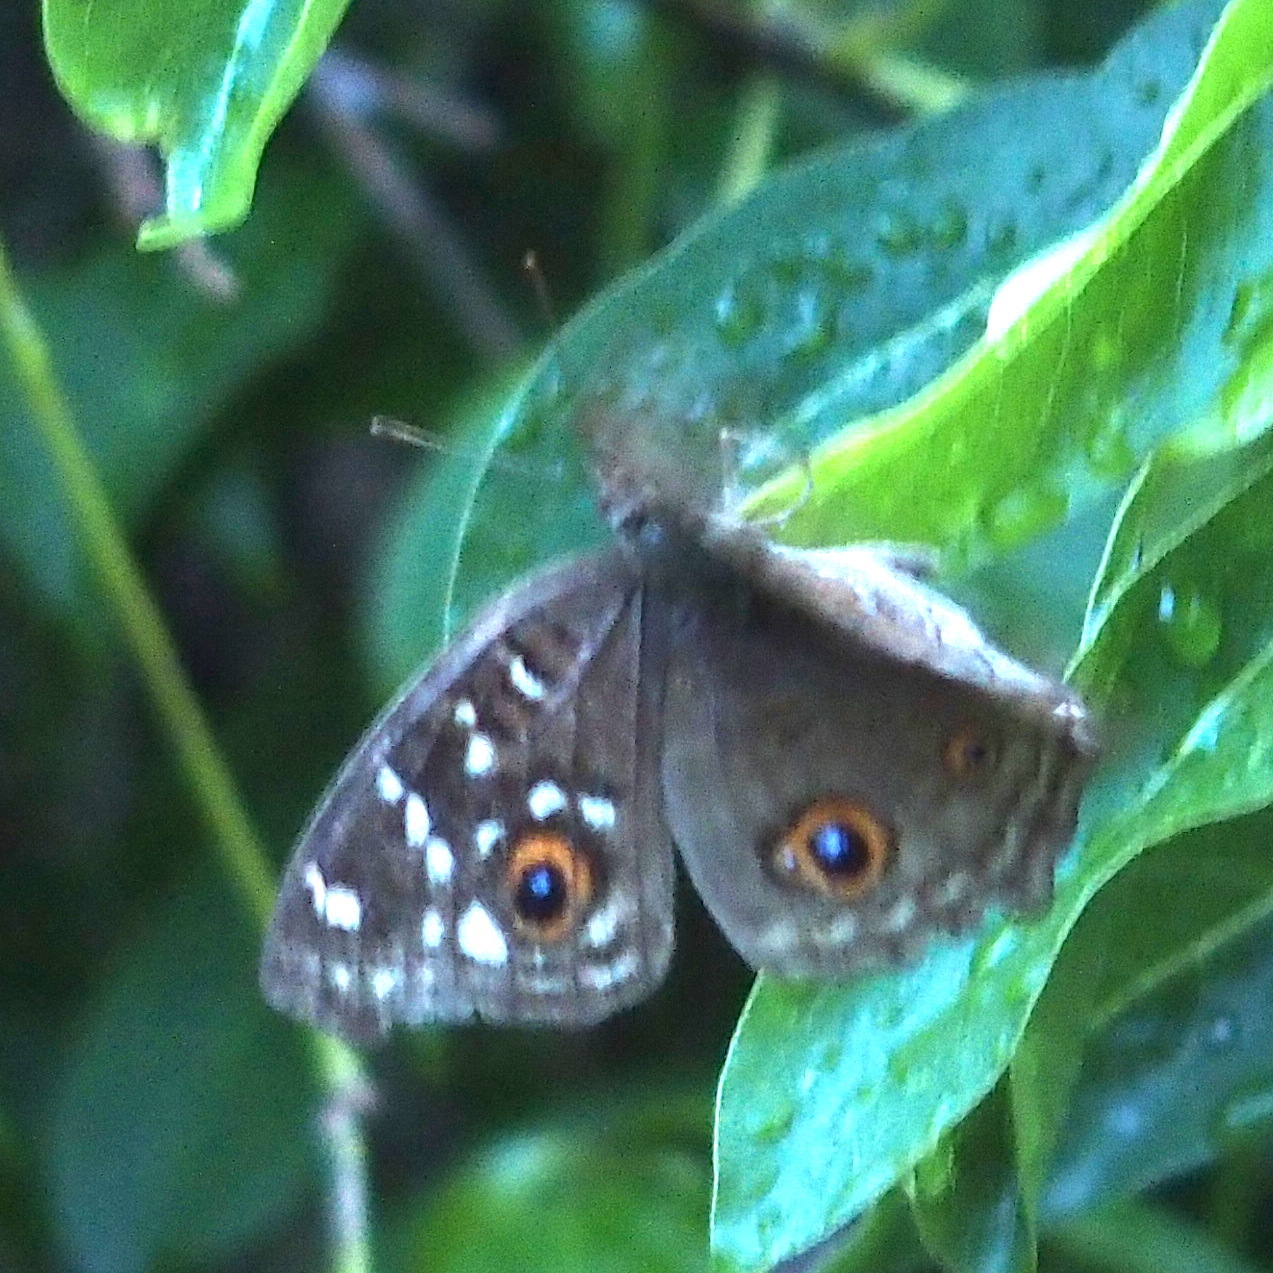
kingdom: Animalia
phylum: Arthropoda
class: Insecta
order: Lepidoptera
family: Nymphalidae
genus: Junonia
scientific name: Junonia lemonias
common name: Lemon pansy
